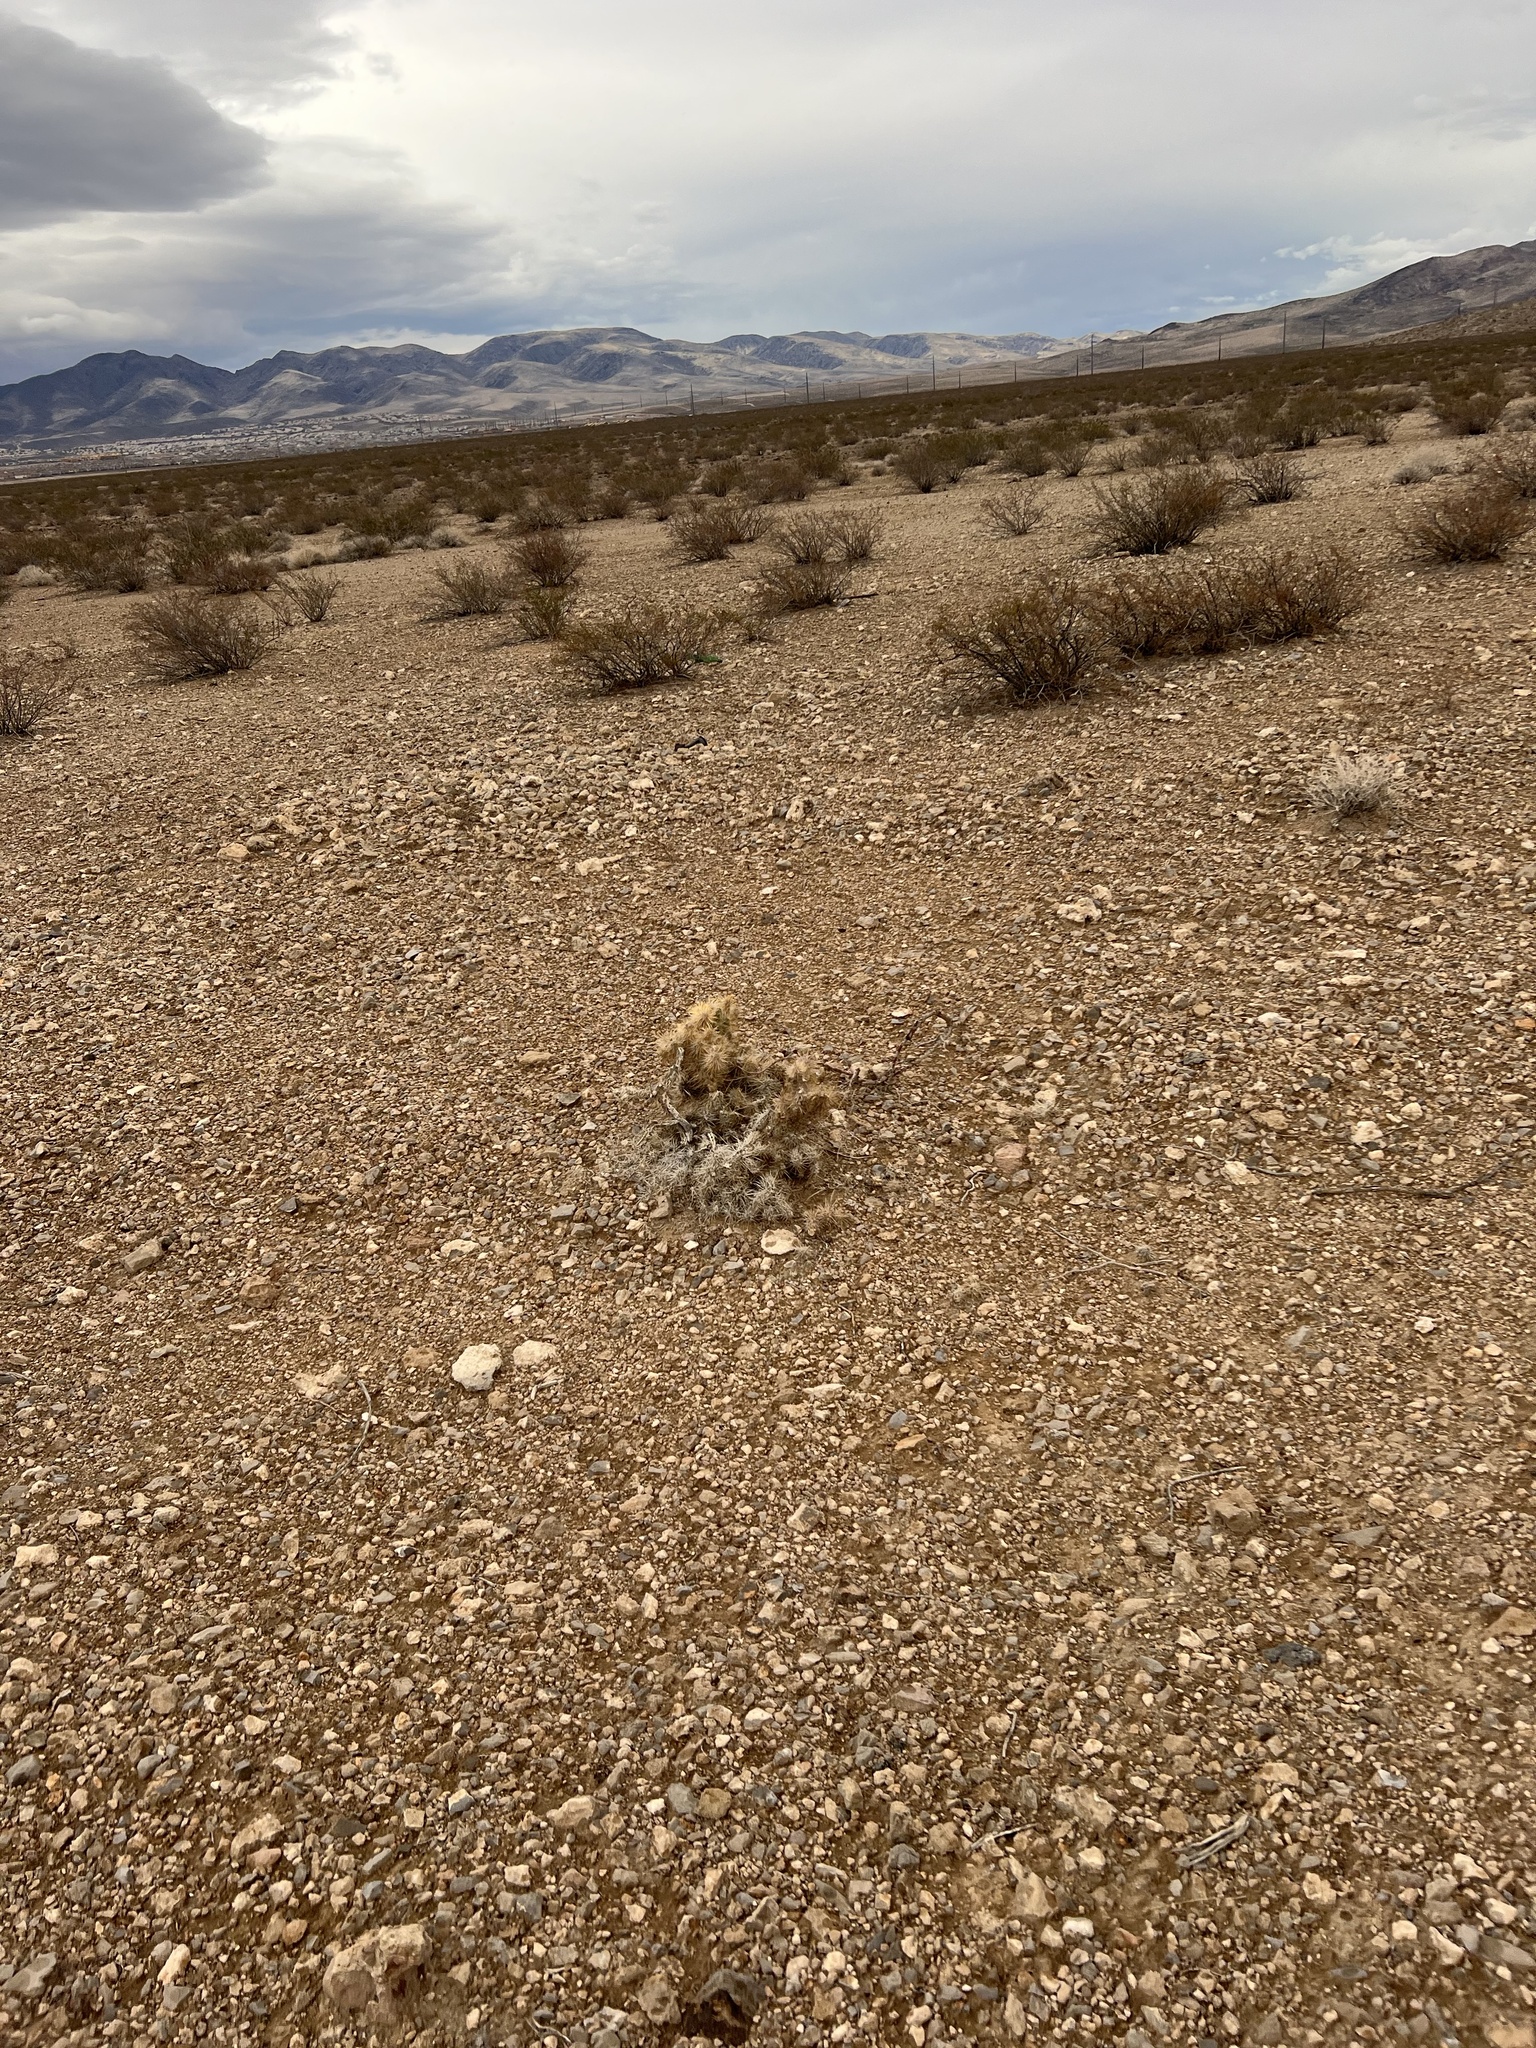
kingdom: Plantae
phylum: Tracheophyta
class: Magnoliopsida
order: Caryophyllales
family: Cactaceae
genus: Cylindropuntia
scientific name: Cylindropuntia echinocarpa
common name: Ground cholla
